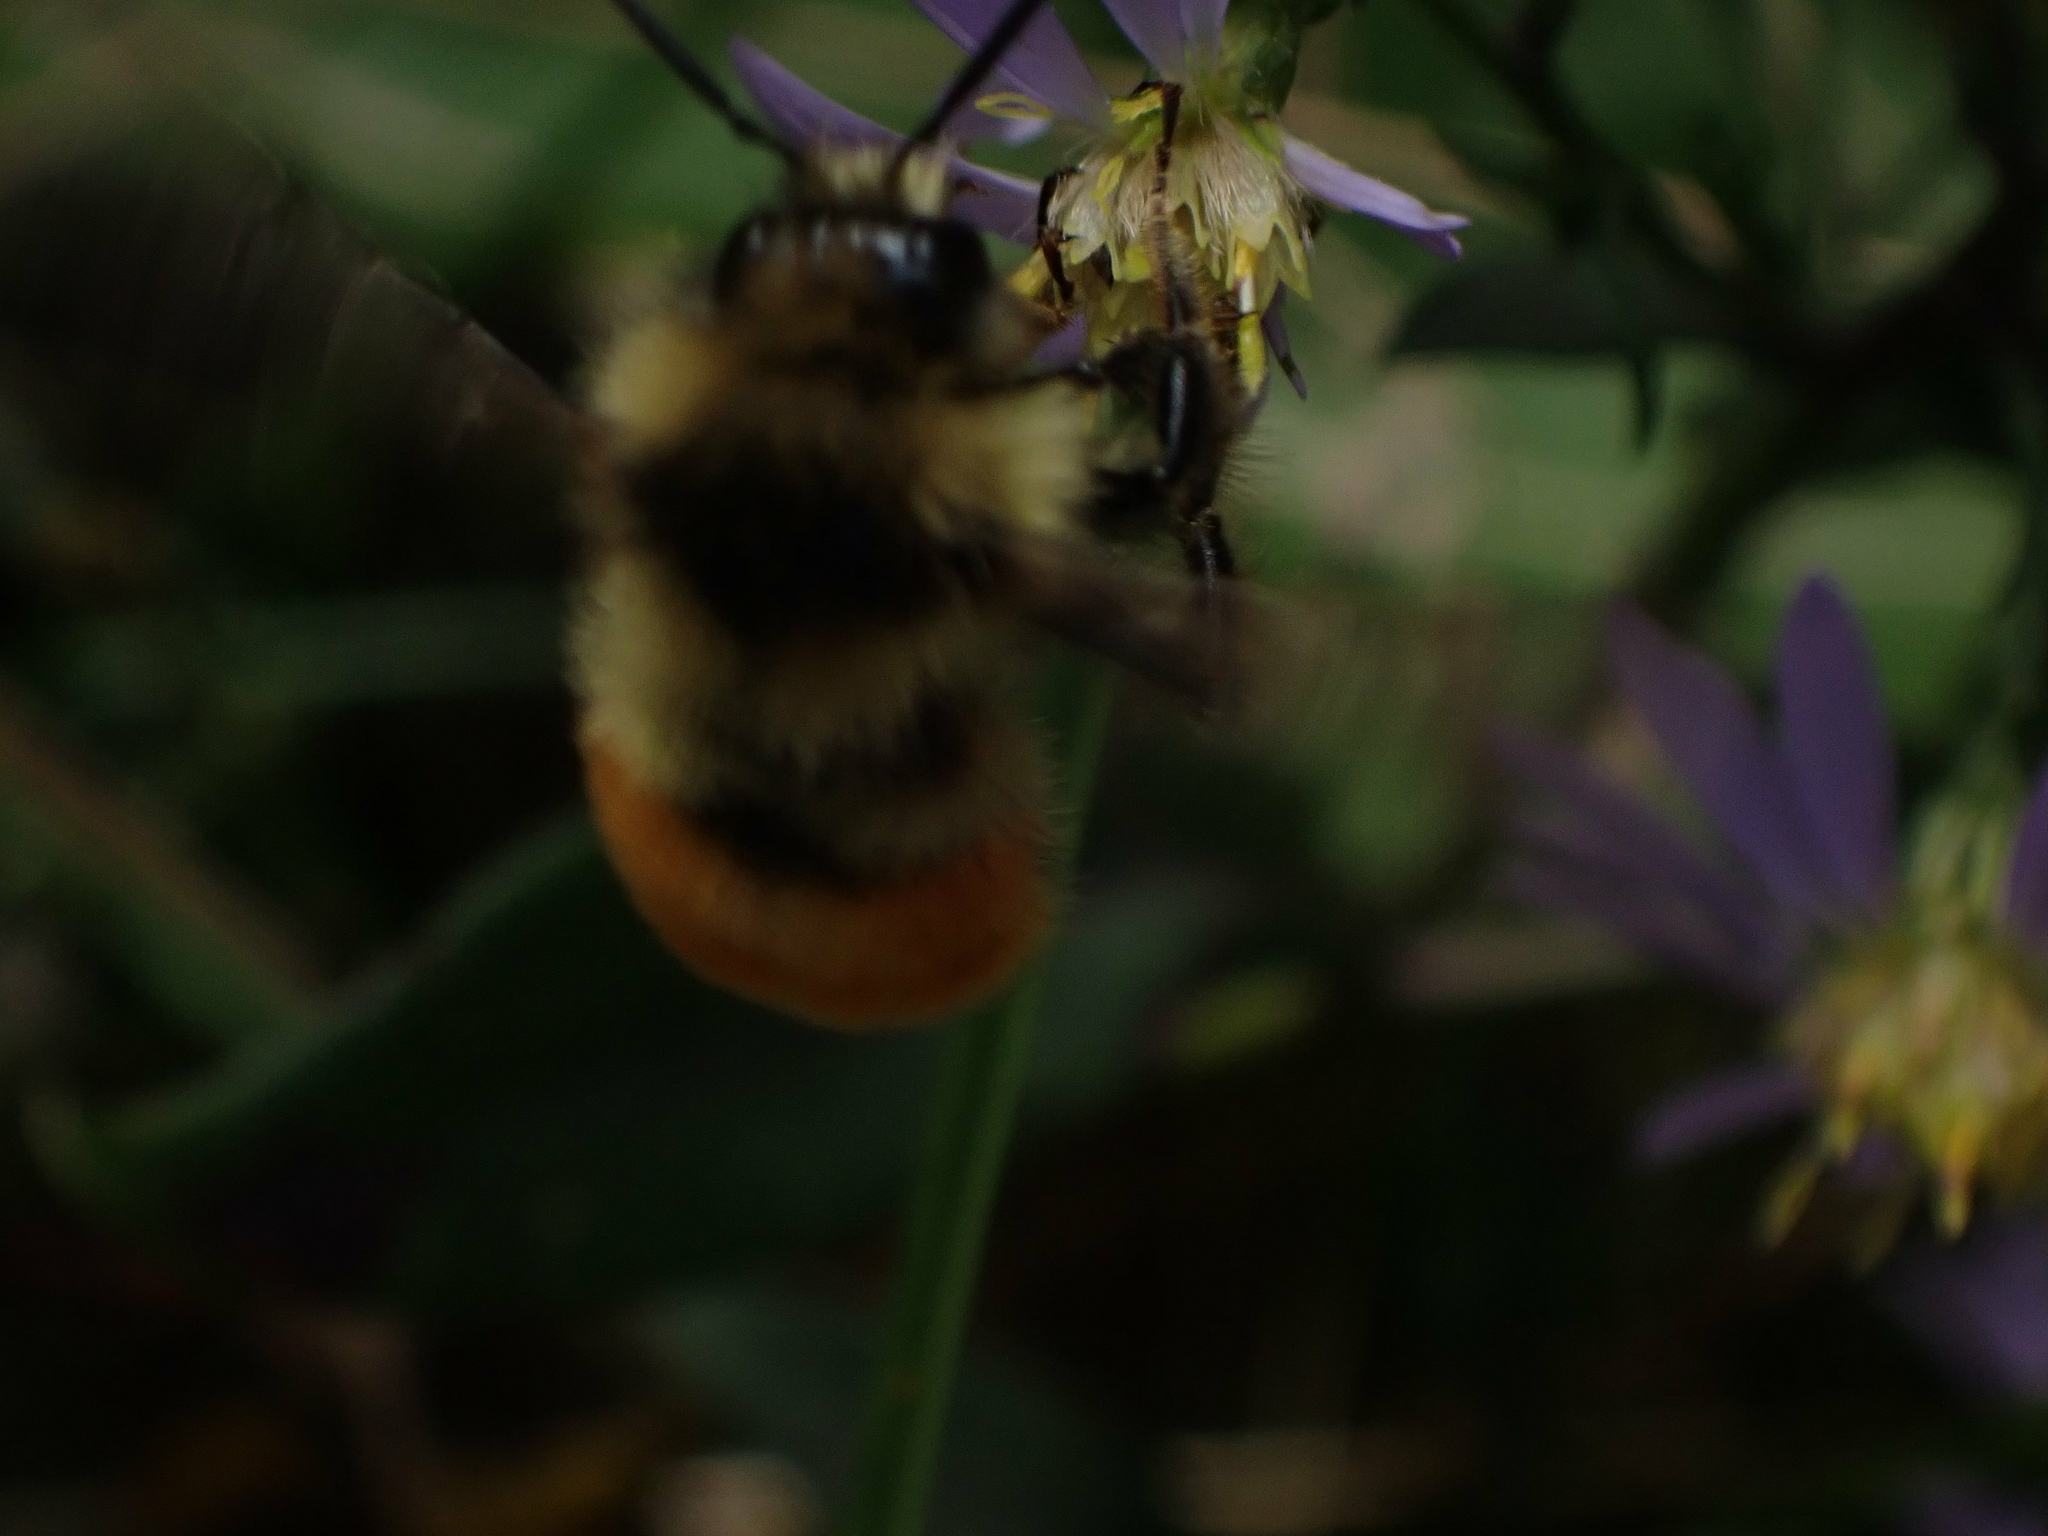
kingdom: Animalia
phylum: Arthropoda
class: Insecta
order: Hymenoptera
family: Apidae
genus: Bombus
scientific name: Bombus ternarius
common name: Tri-colored bumble bee
